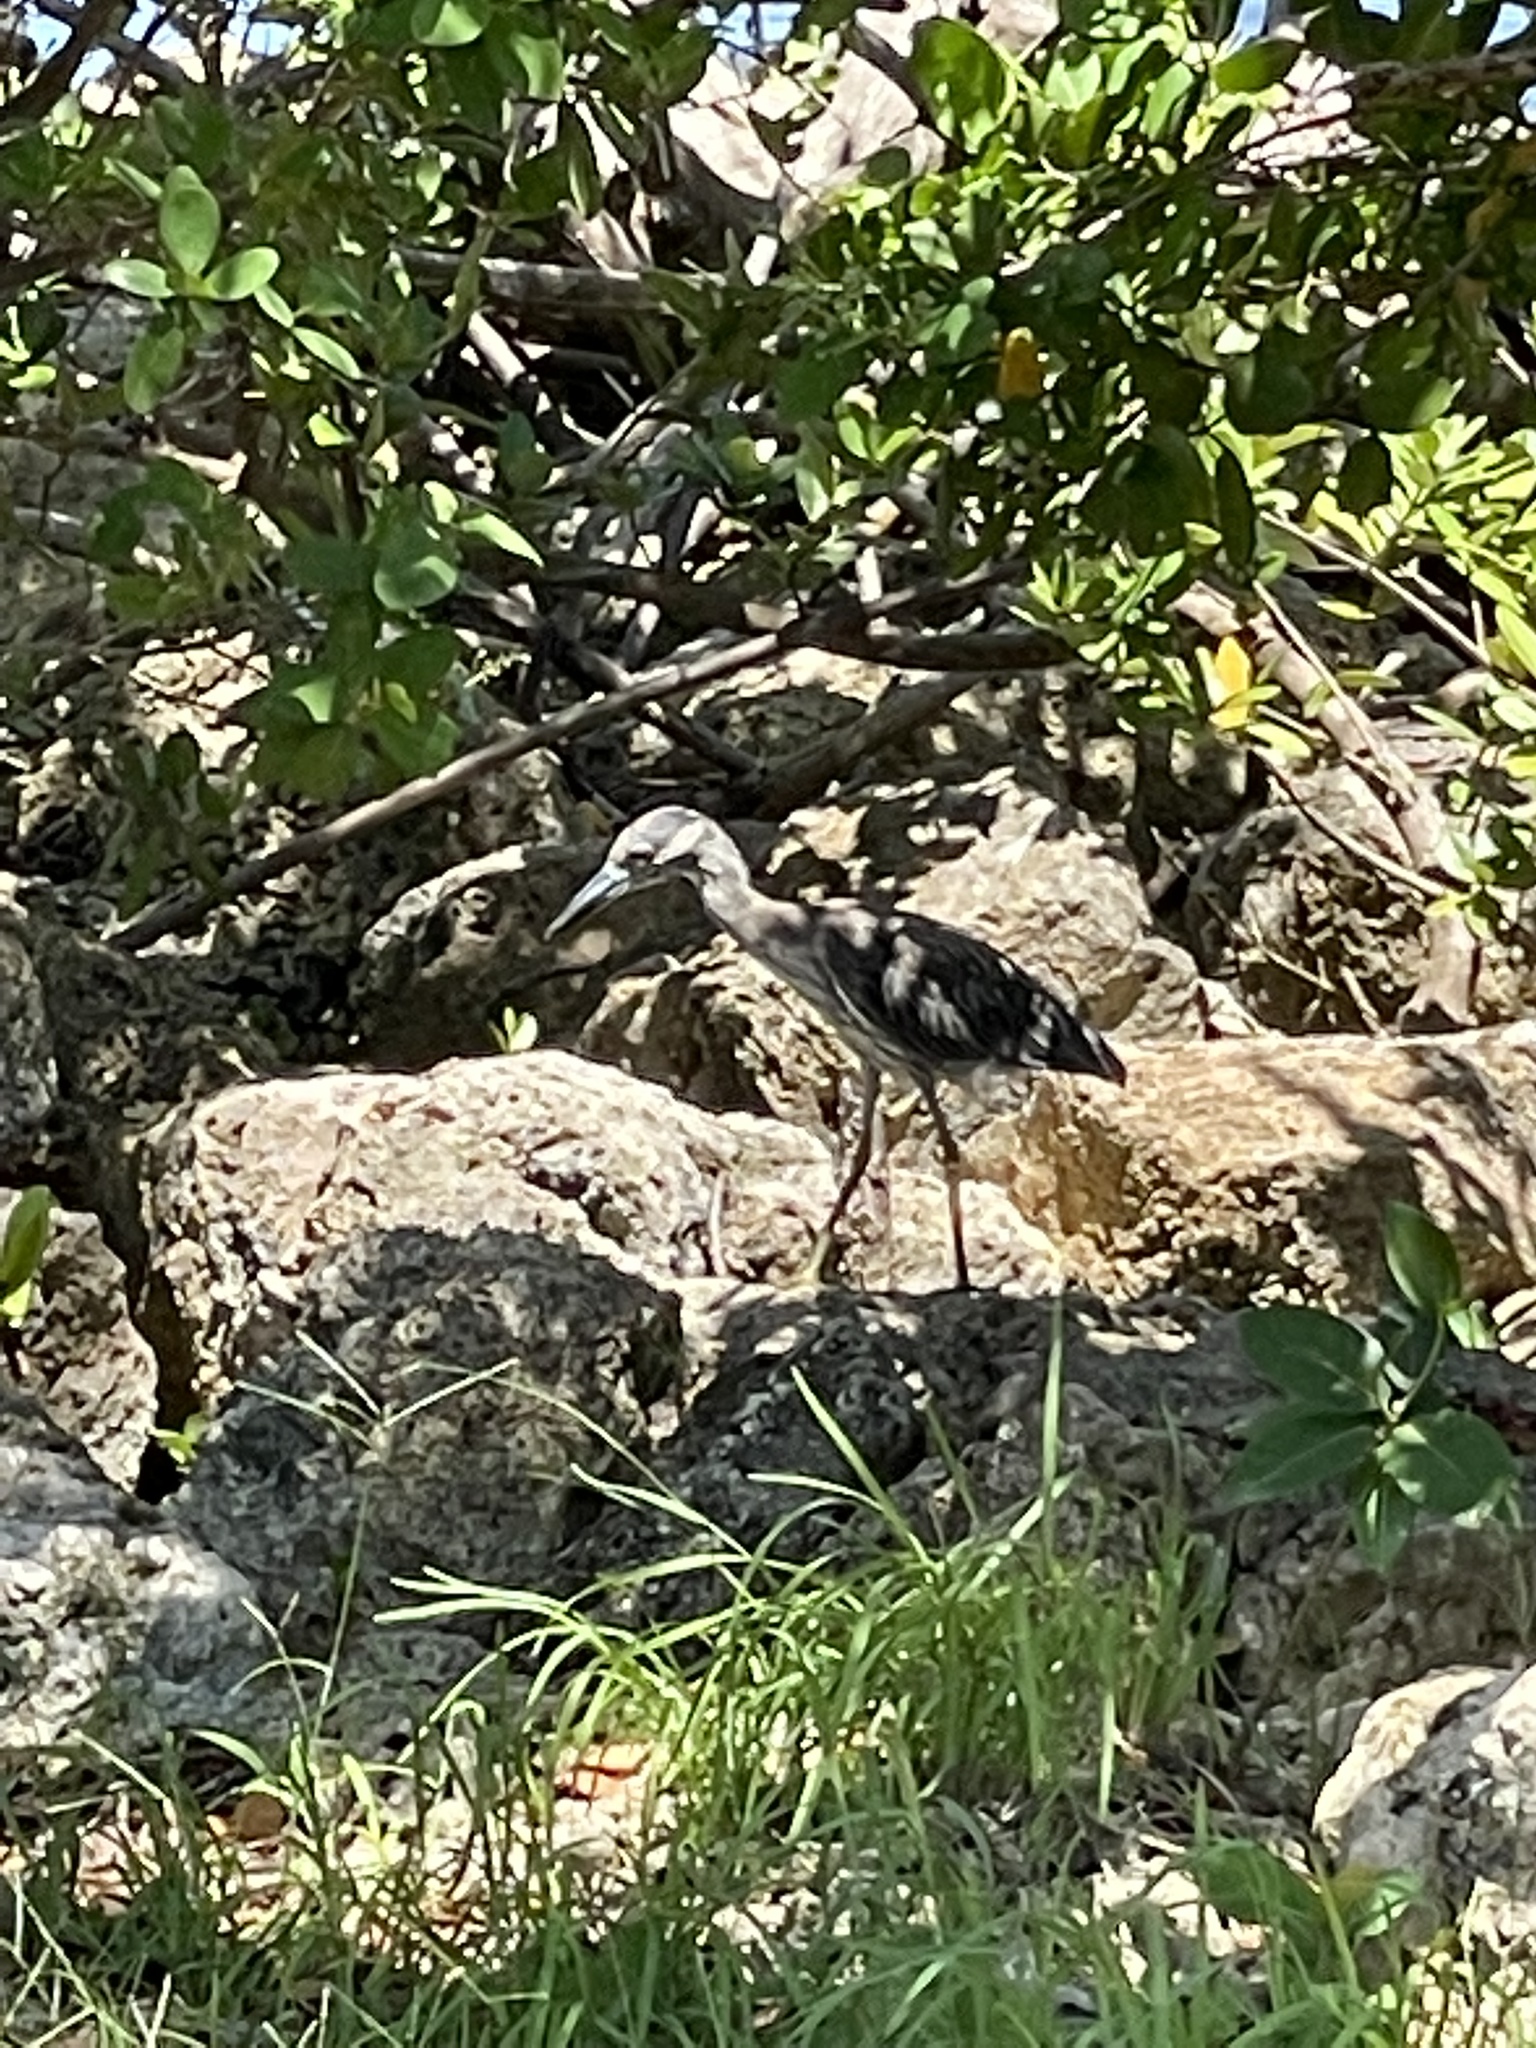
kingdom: Animalia
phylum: Chordata
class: Aves
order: Pelecaniformes
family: Ardeidae
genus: Nyctanassa
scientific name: Nyctanassa violacea
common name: Yellow-crowned night heron
